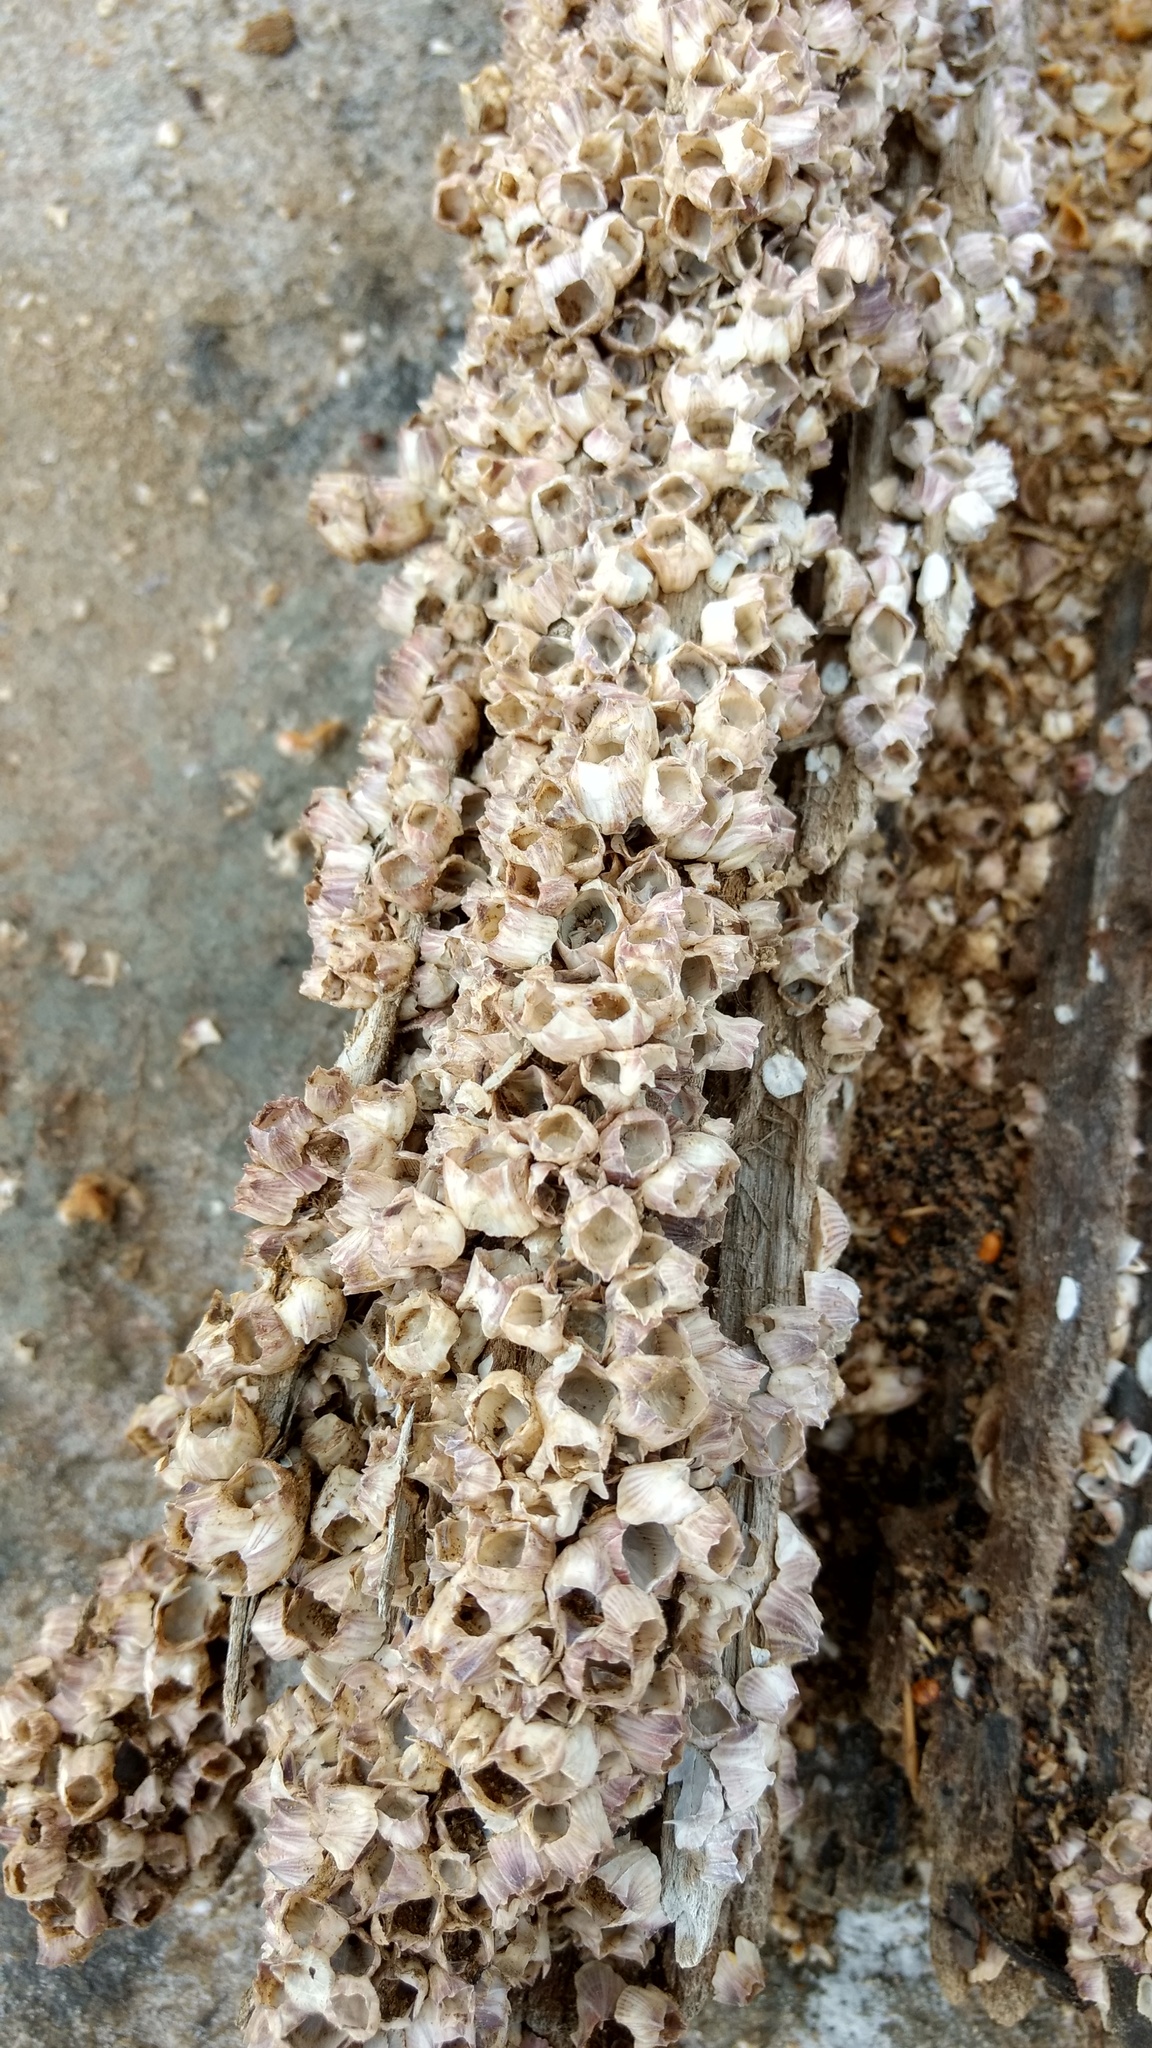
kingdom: Animalia
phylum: Arthropoda
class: Maxillopoda
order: Sessilia
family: Balanidae
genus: Amphibalanus
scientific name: Amphibalanus amphitrite
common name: Striped acorn barnacle
